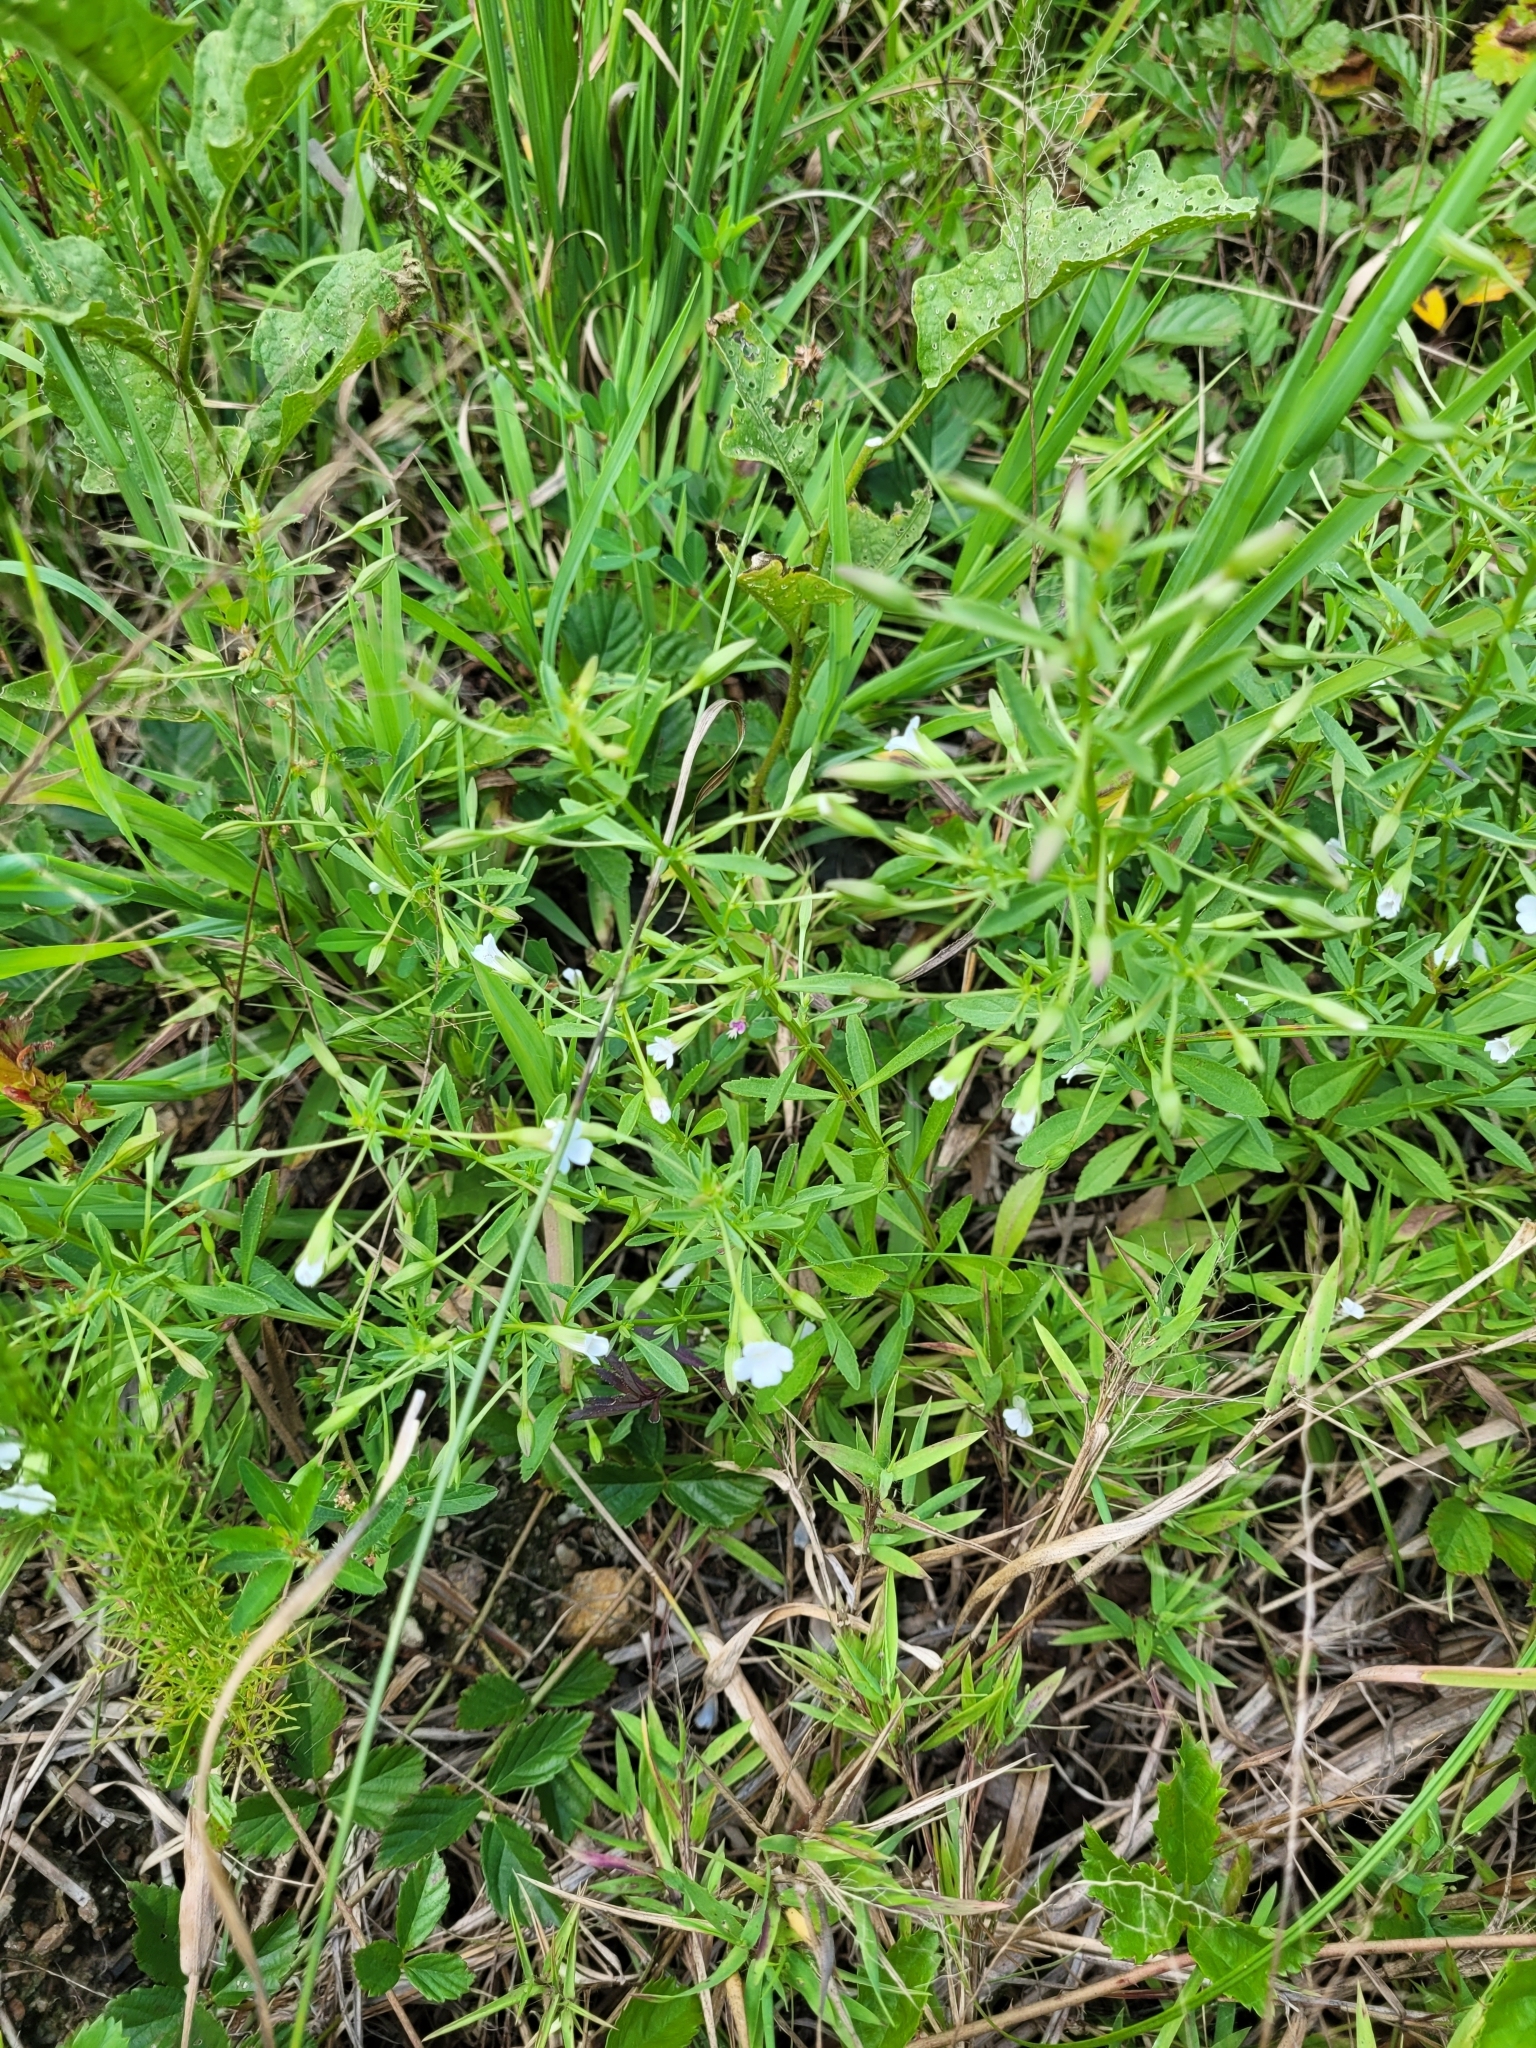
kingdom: Plantae
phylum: Tracheophyta
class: Magnoliopsida
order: Lamiales
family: Plantaginaceae
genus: Mecardonia
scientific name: Mecardonia acuminata
